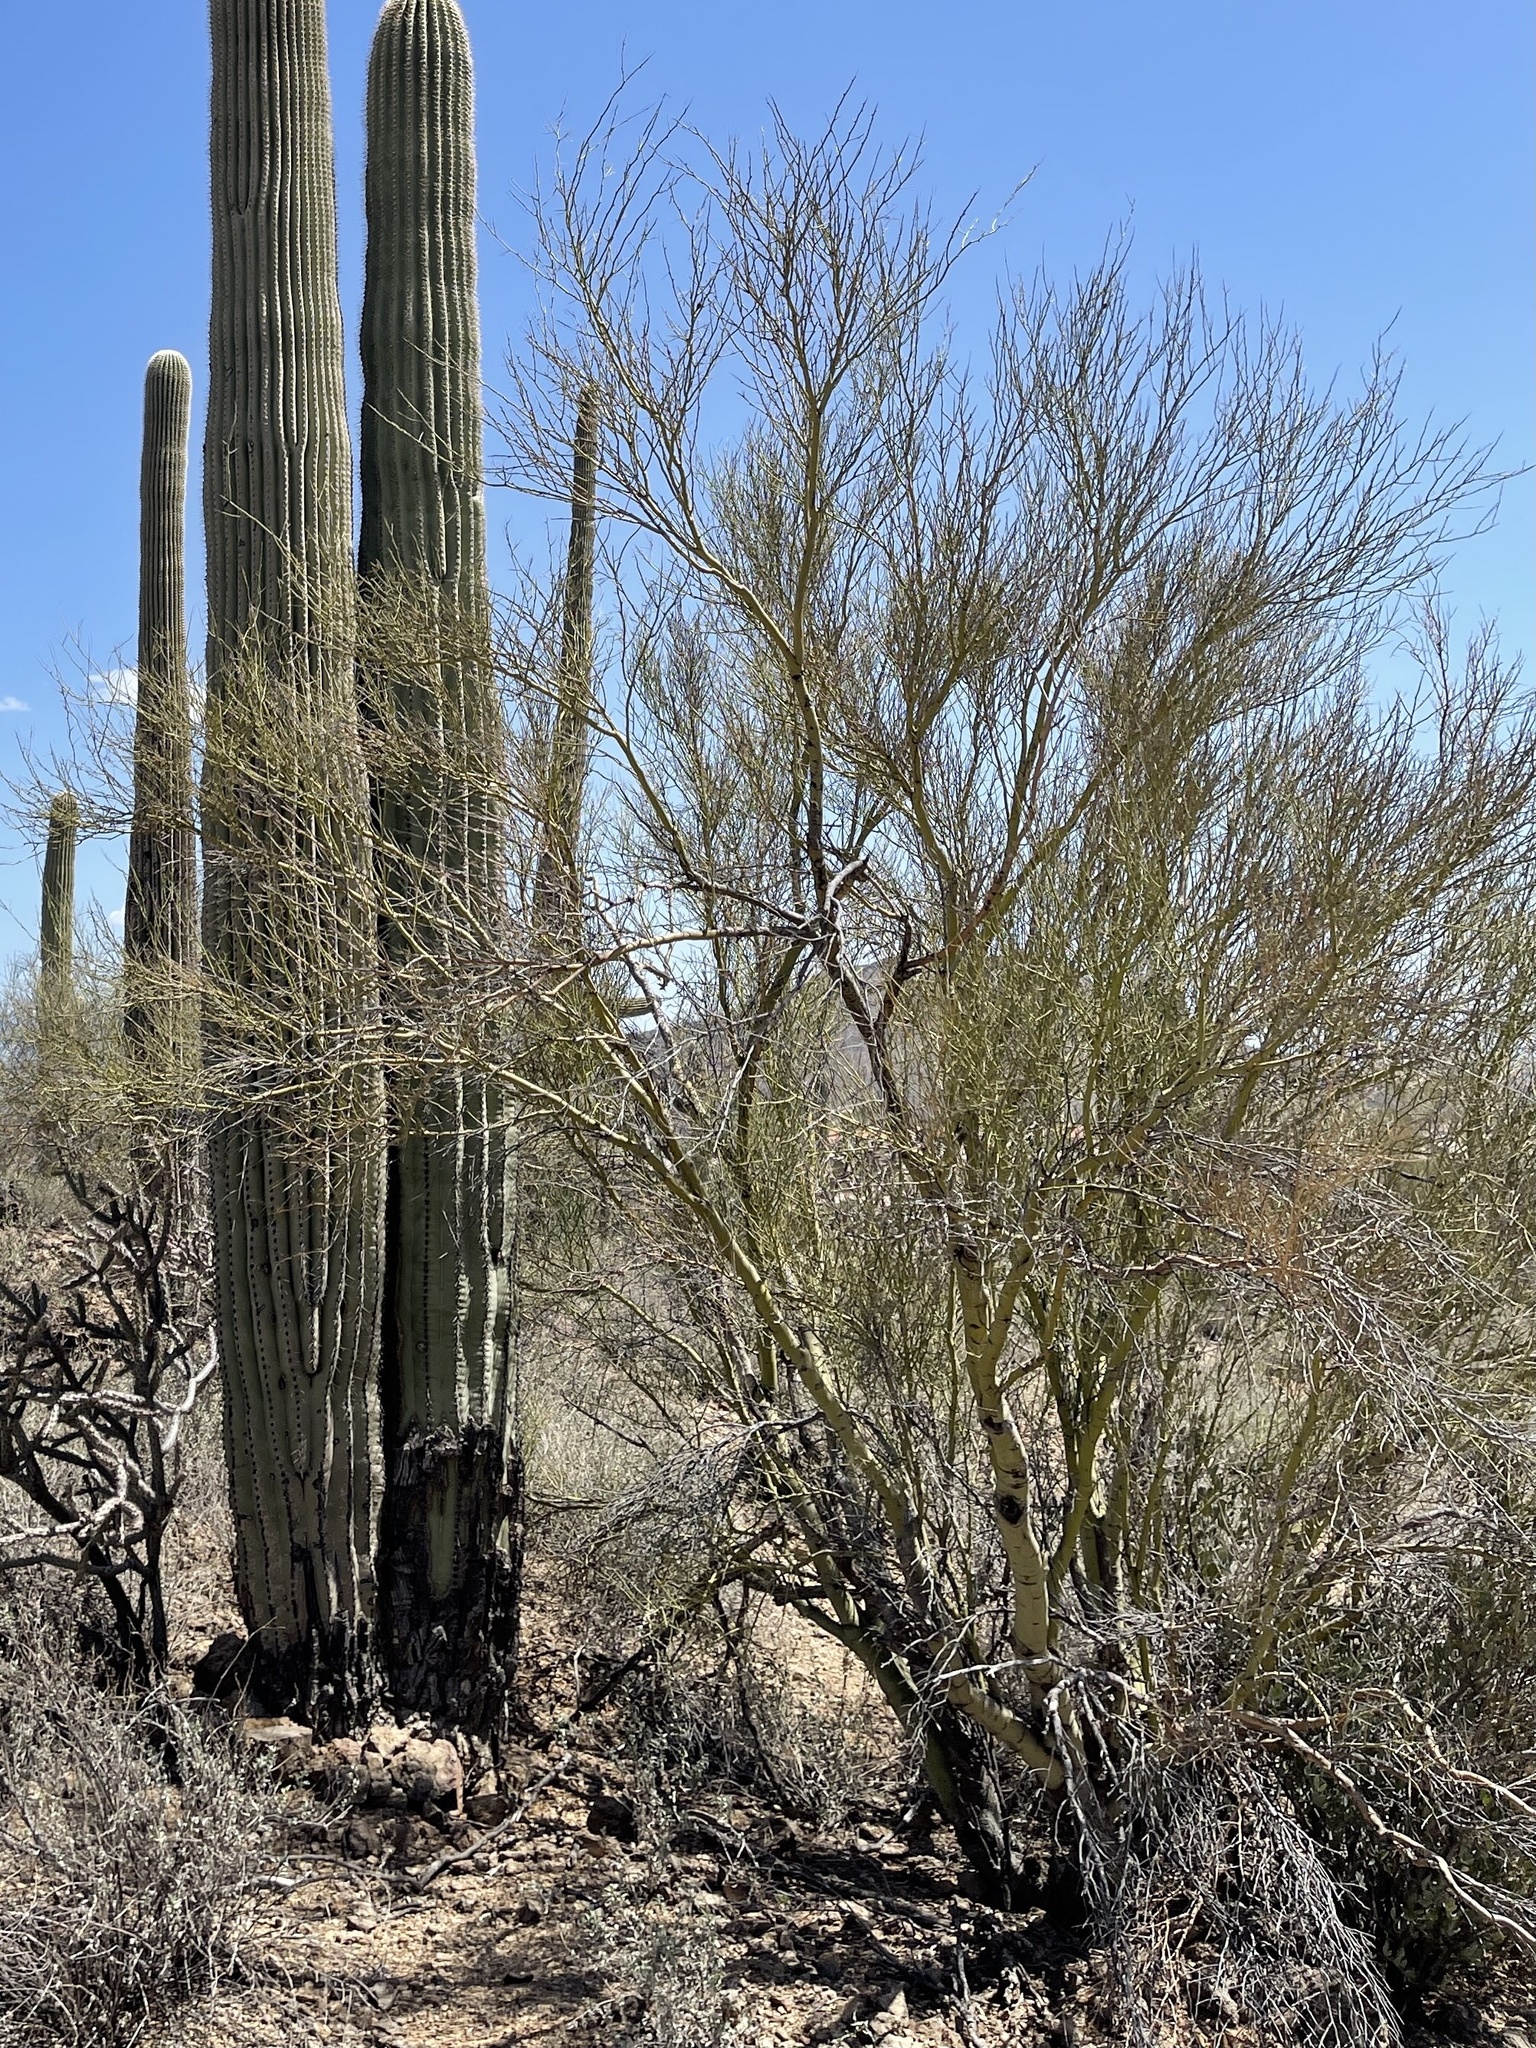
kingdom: Plantae
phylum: Tracheophyta
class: Magnoliopsida
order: Fabales
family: Fabaceae
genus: Parkinsonia
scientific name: Parkinsonia microphylla
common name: Yellow paloverde
